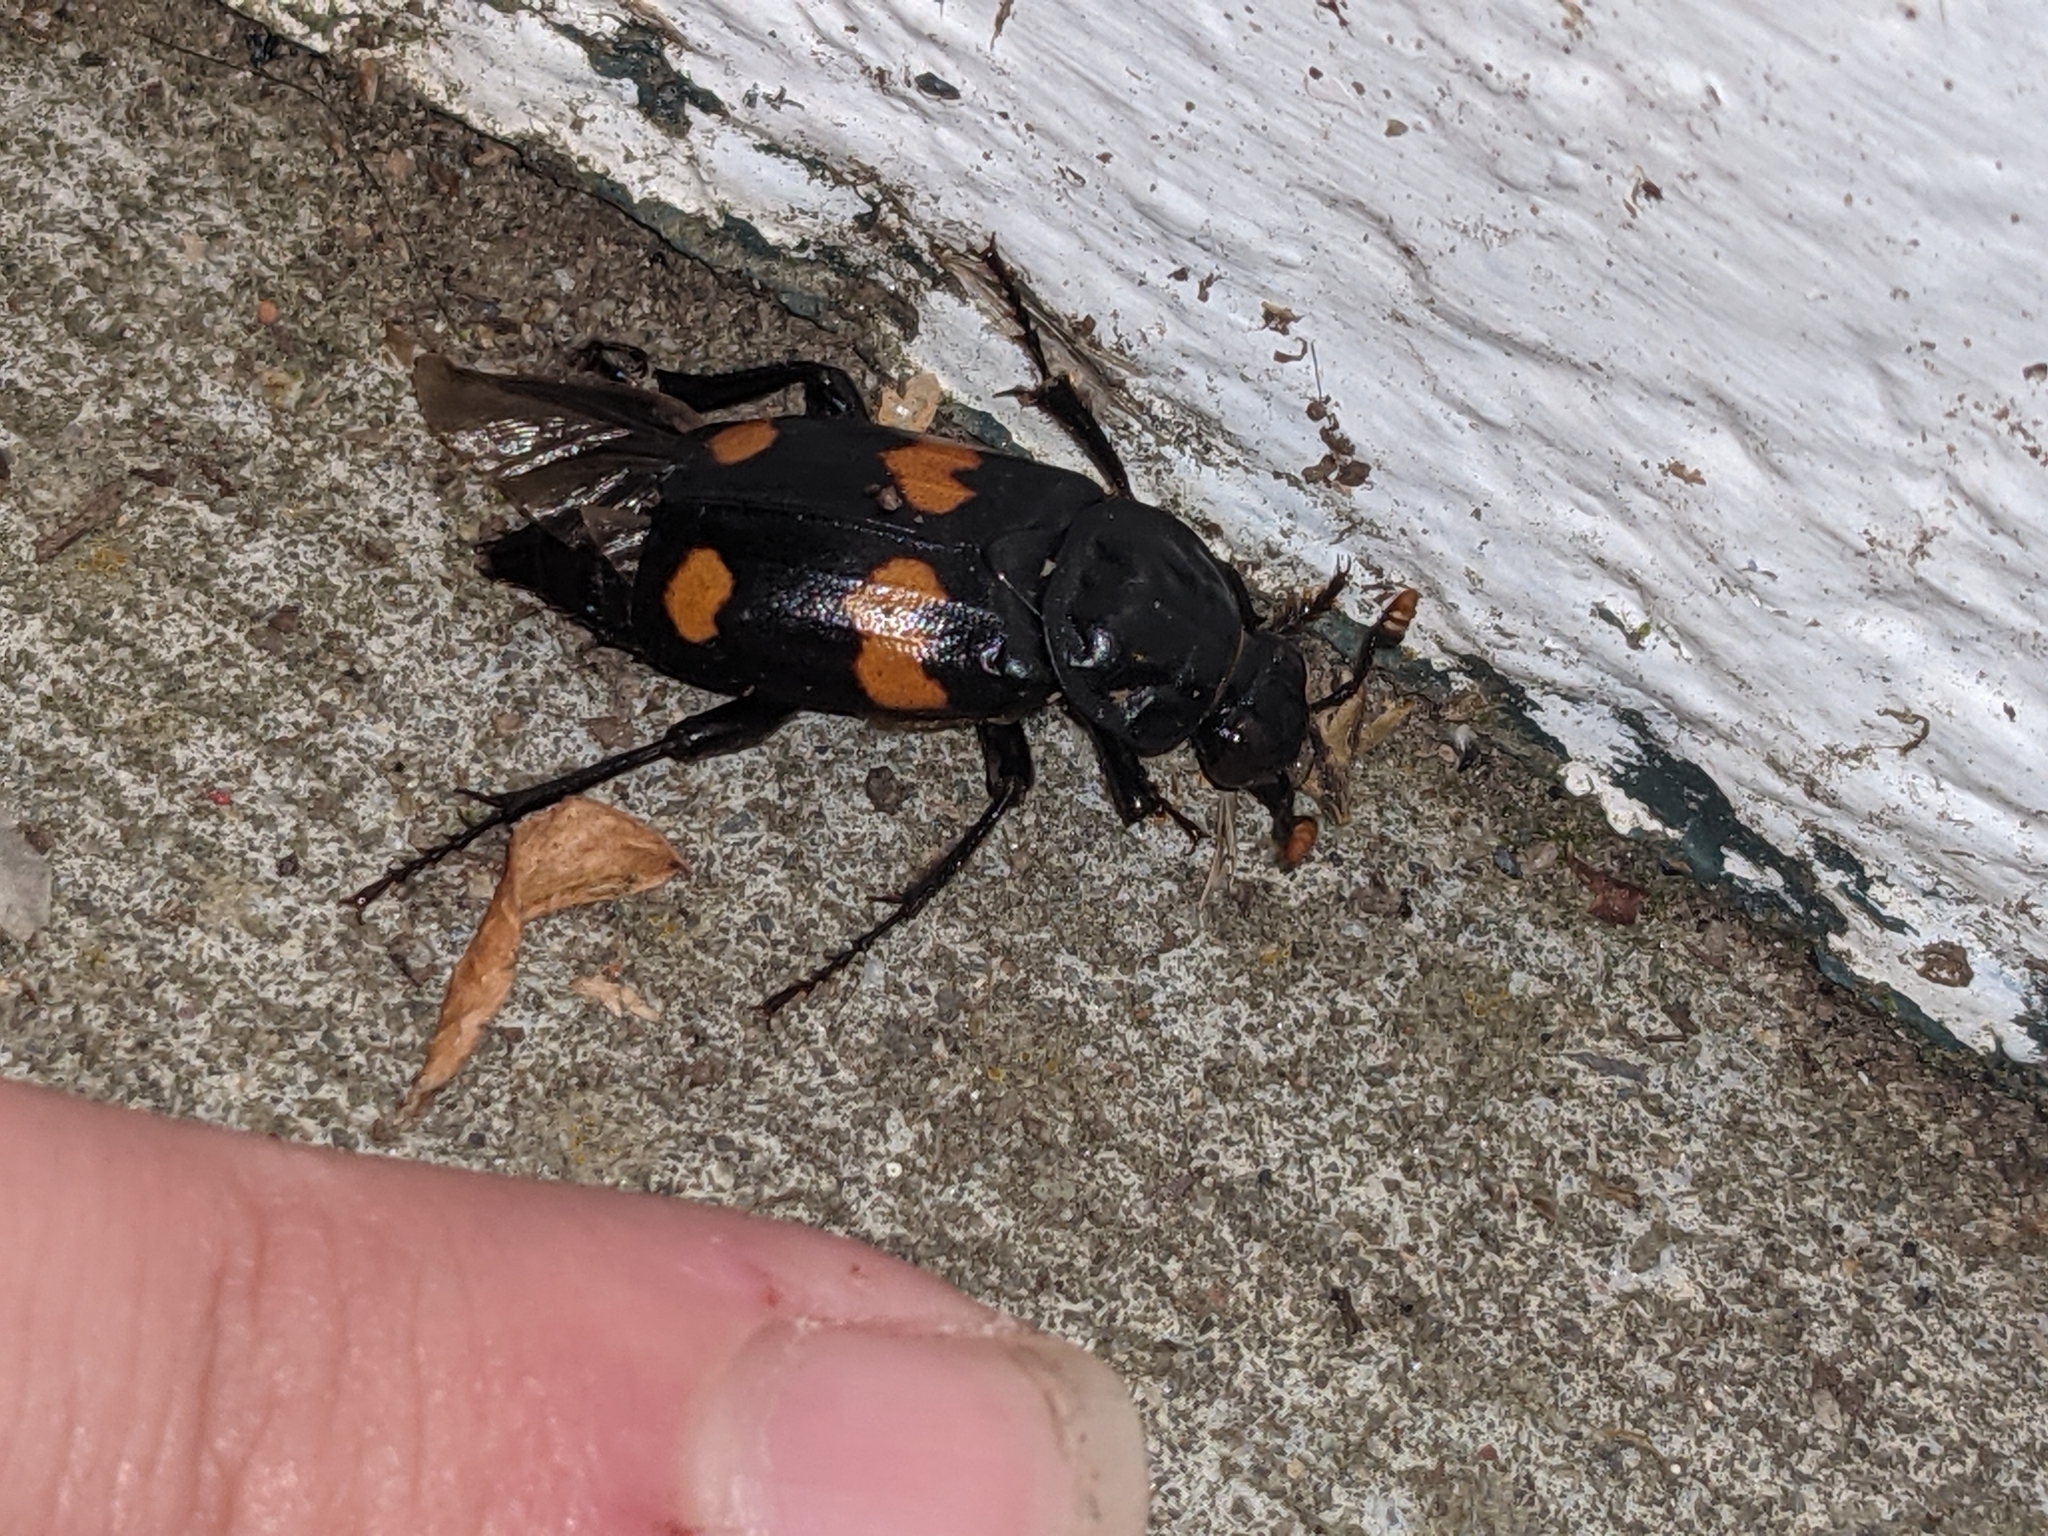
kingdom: Animalia
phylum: Arthropoda
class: Insecta
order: Coleoptera
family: Staphylinidae
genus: Nicrophorus
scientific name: Nicrophorus orbicollis
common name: Roundneck sexton beetle
